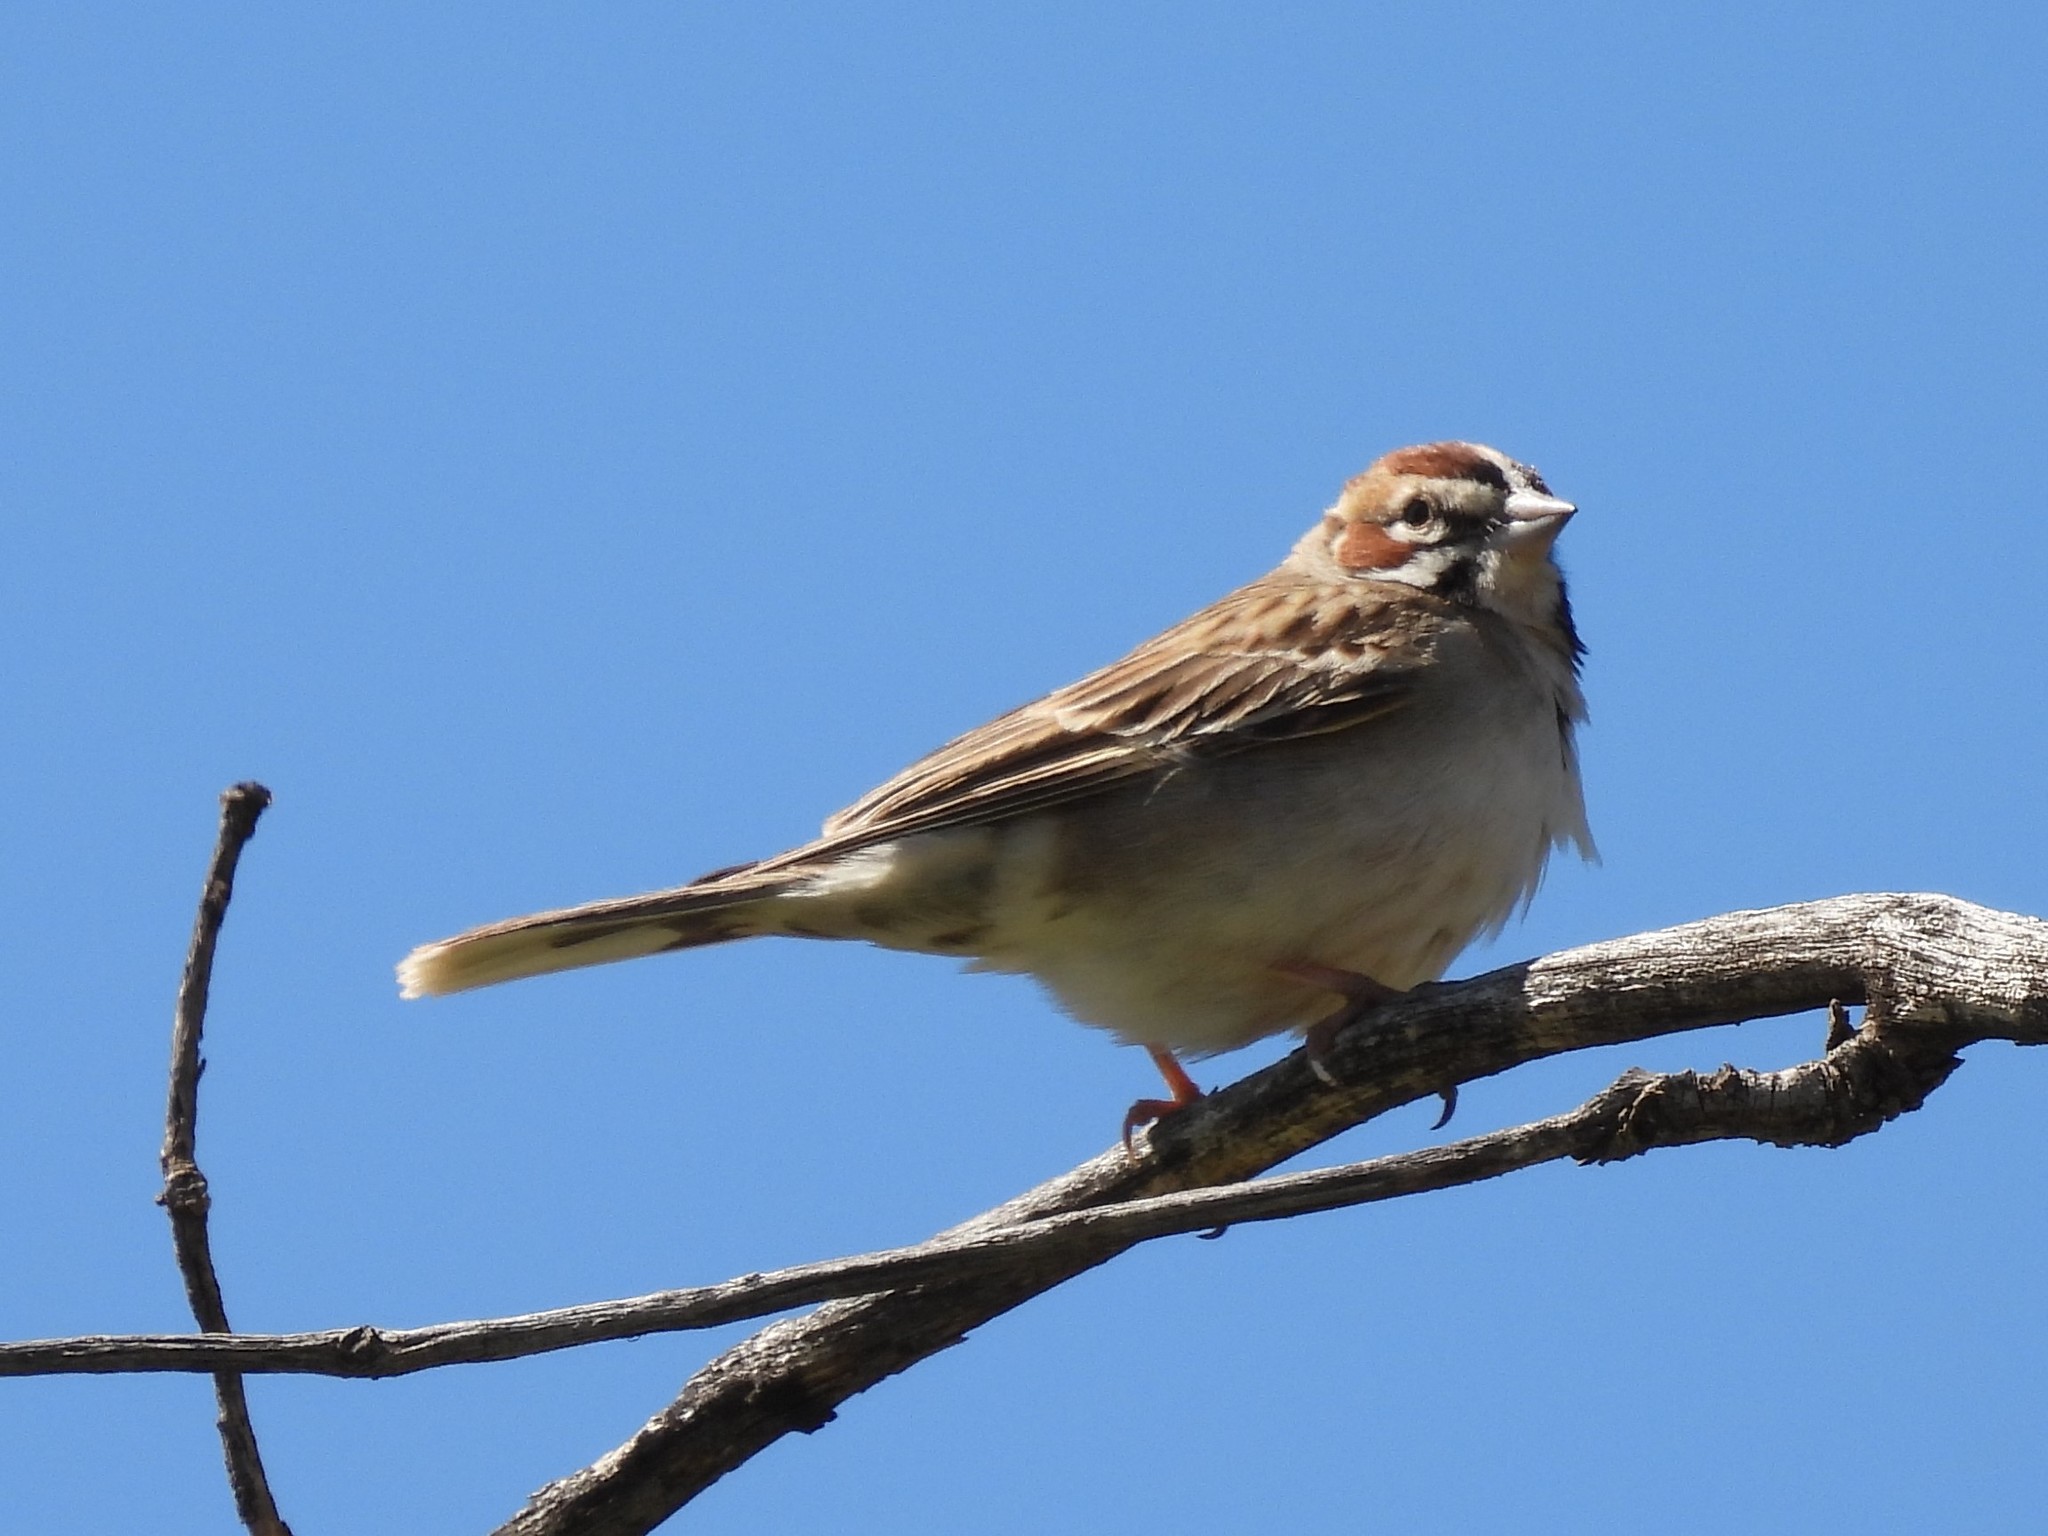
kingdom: Animalia
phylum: Chordata
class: Aves
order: Passeriformes
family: Passerellidae
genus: Chondestes
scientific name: Chondestes grammacus
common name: Lark sparrow
